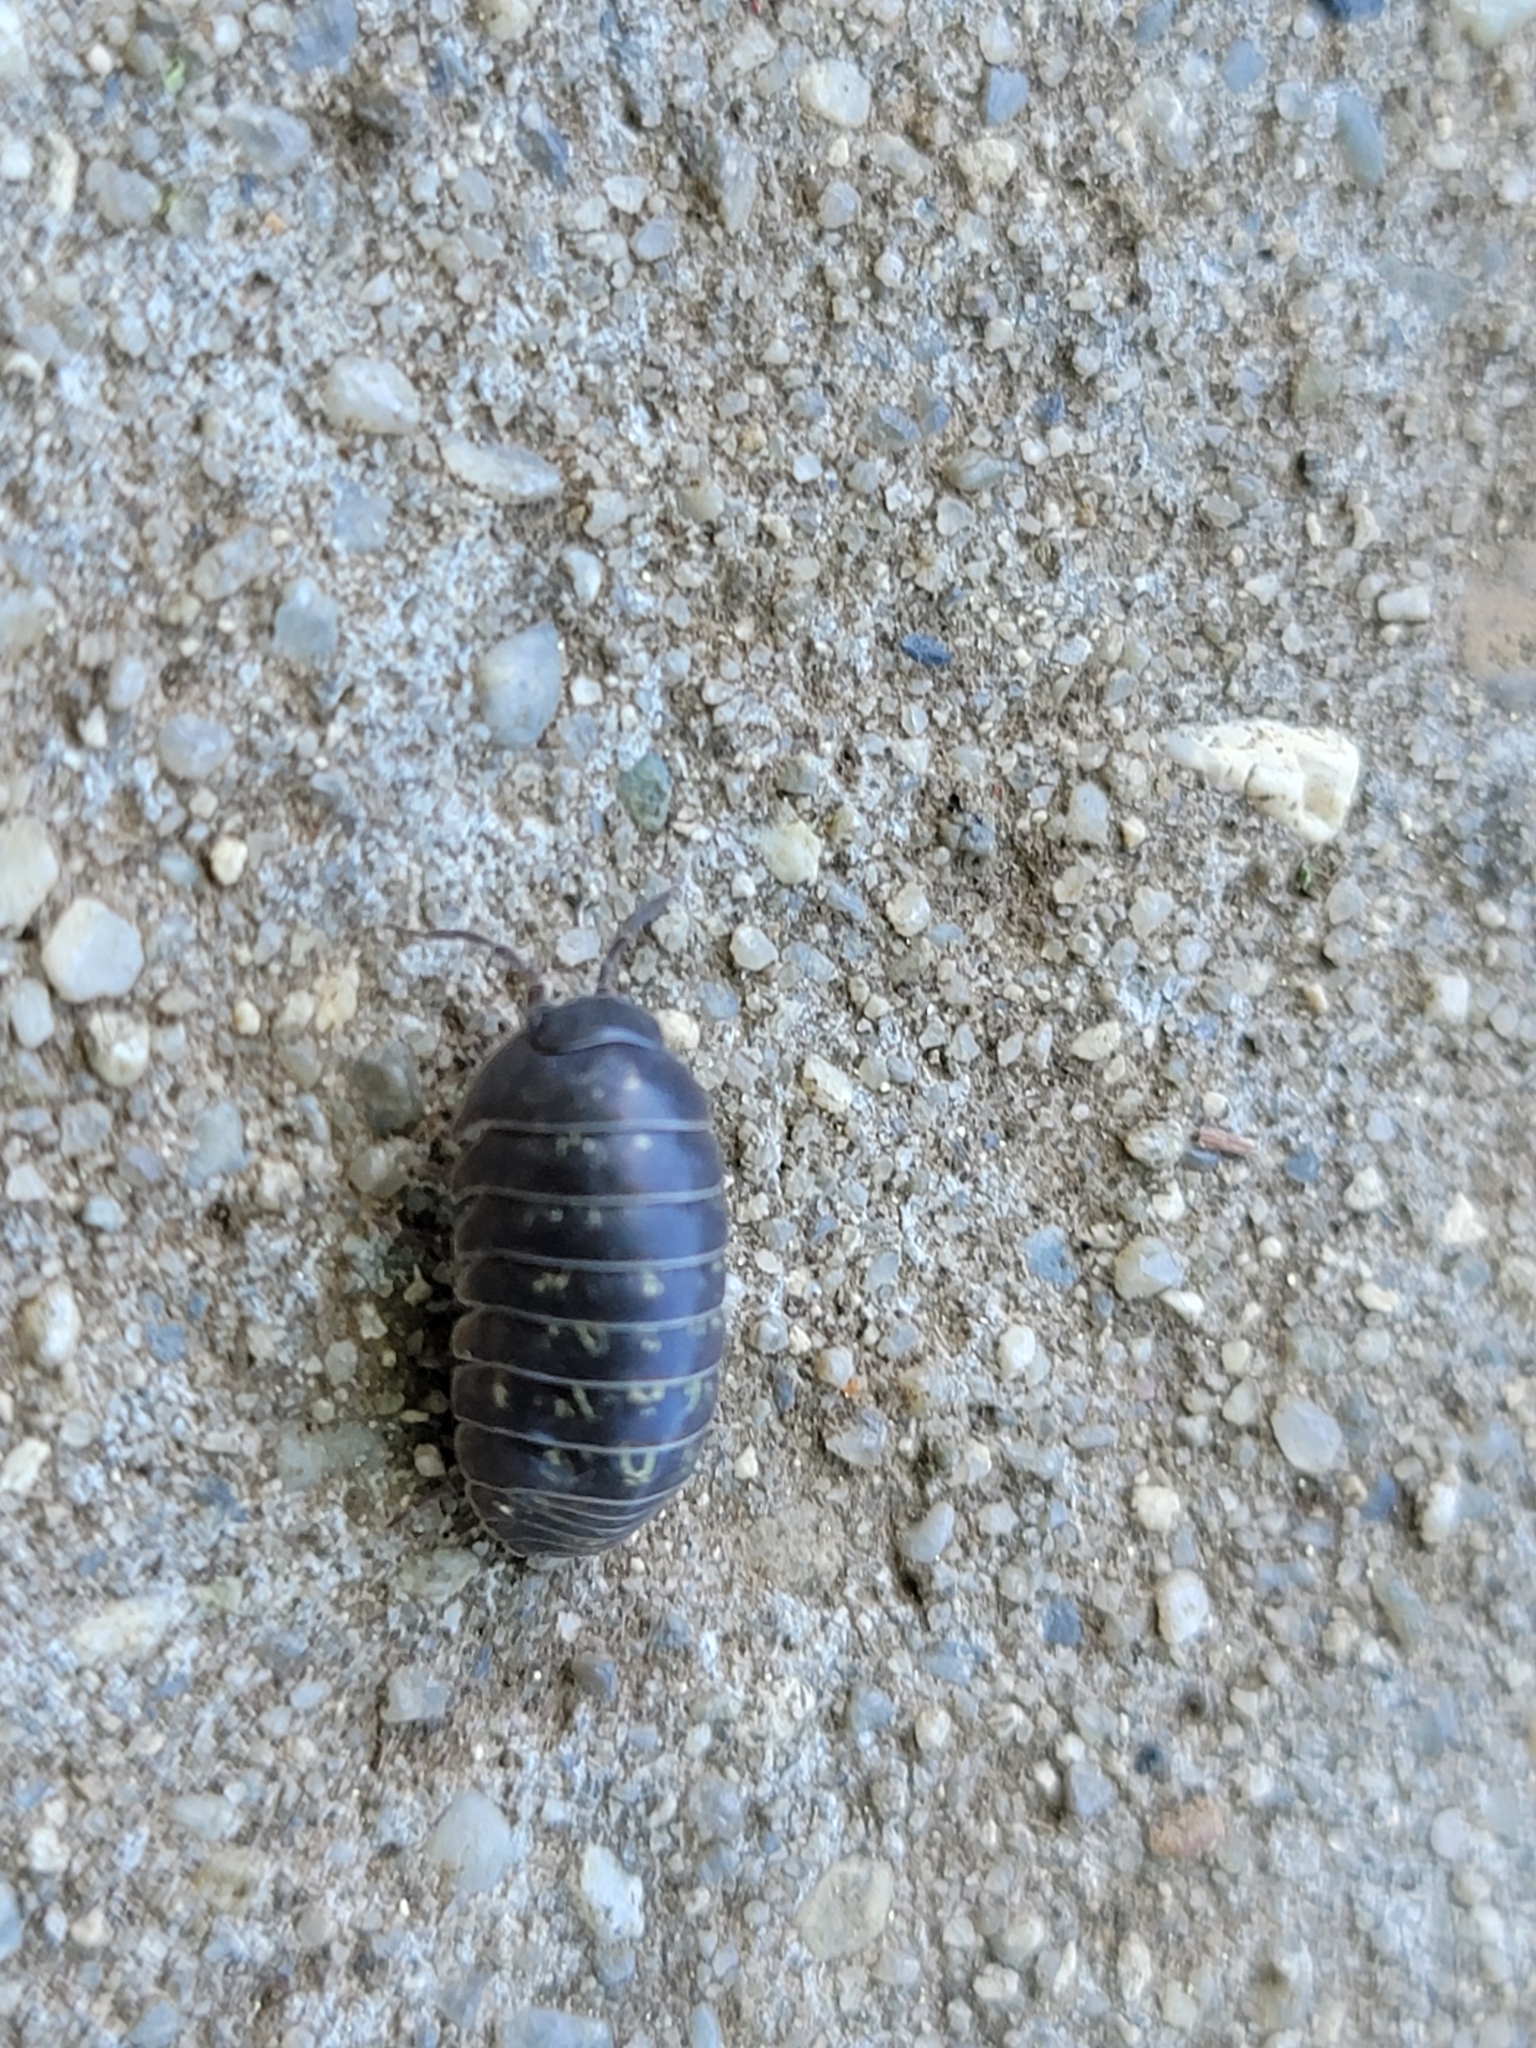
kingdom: Animalia
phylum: Arthropoda
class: Malacostraca
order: Isopoda
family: Armadillidiidae
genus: Armadillidium
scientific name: Armadillidium vulgare
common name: Common pill woodlouse
